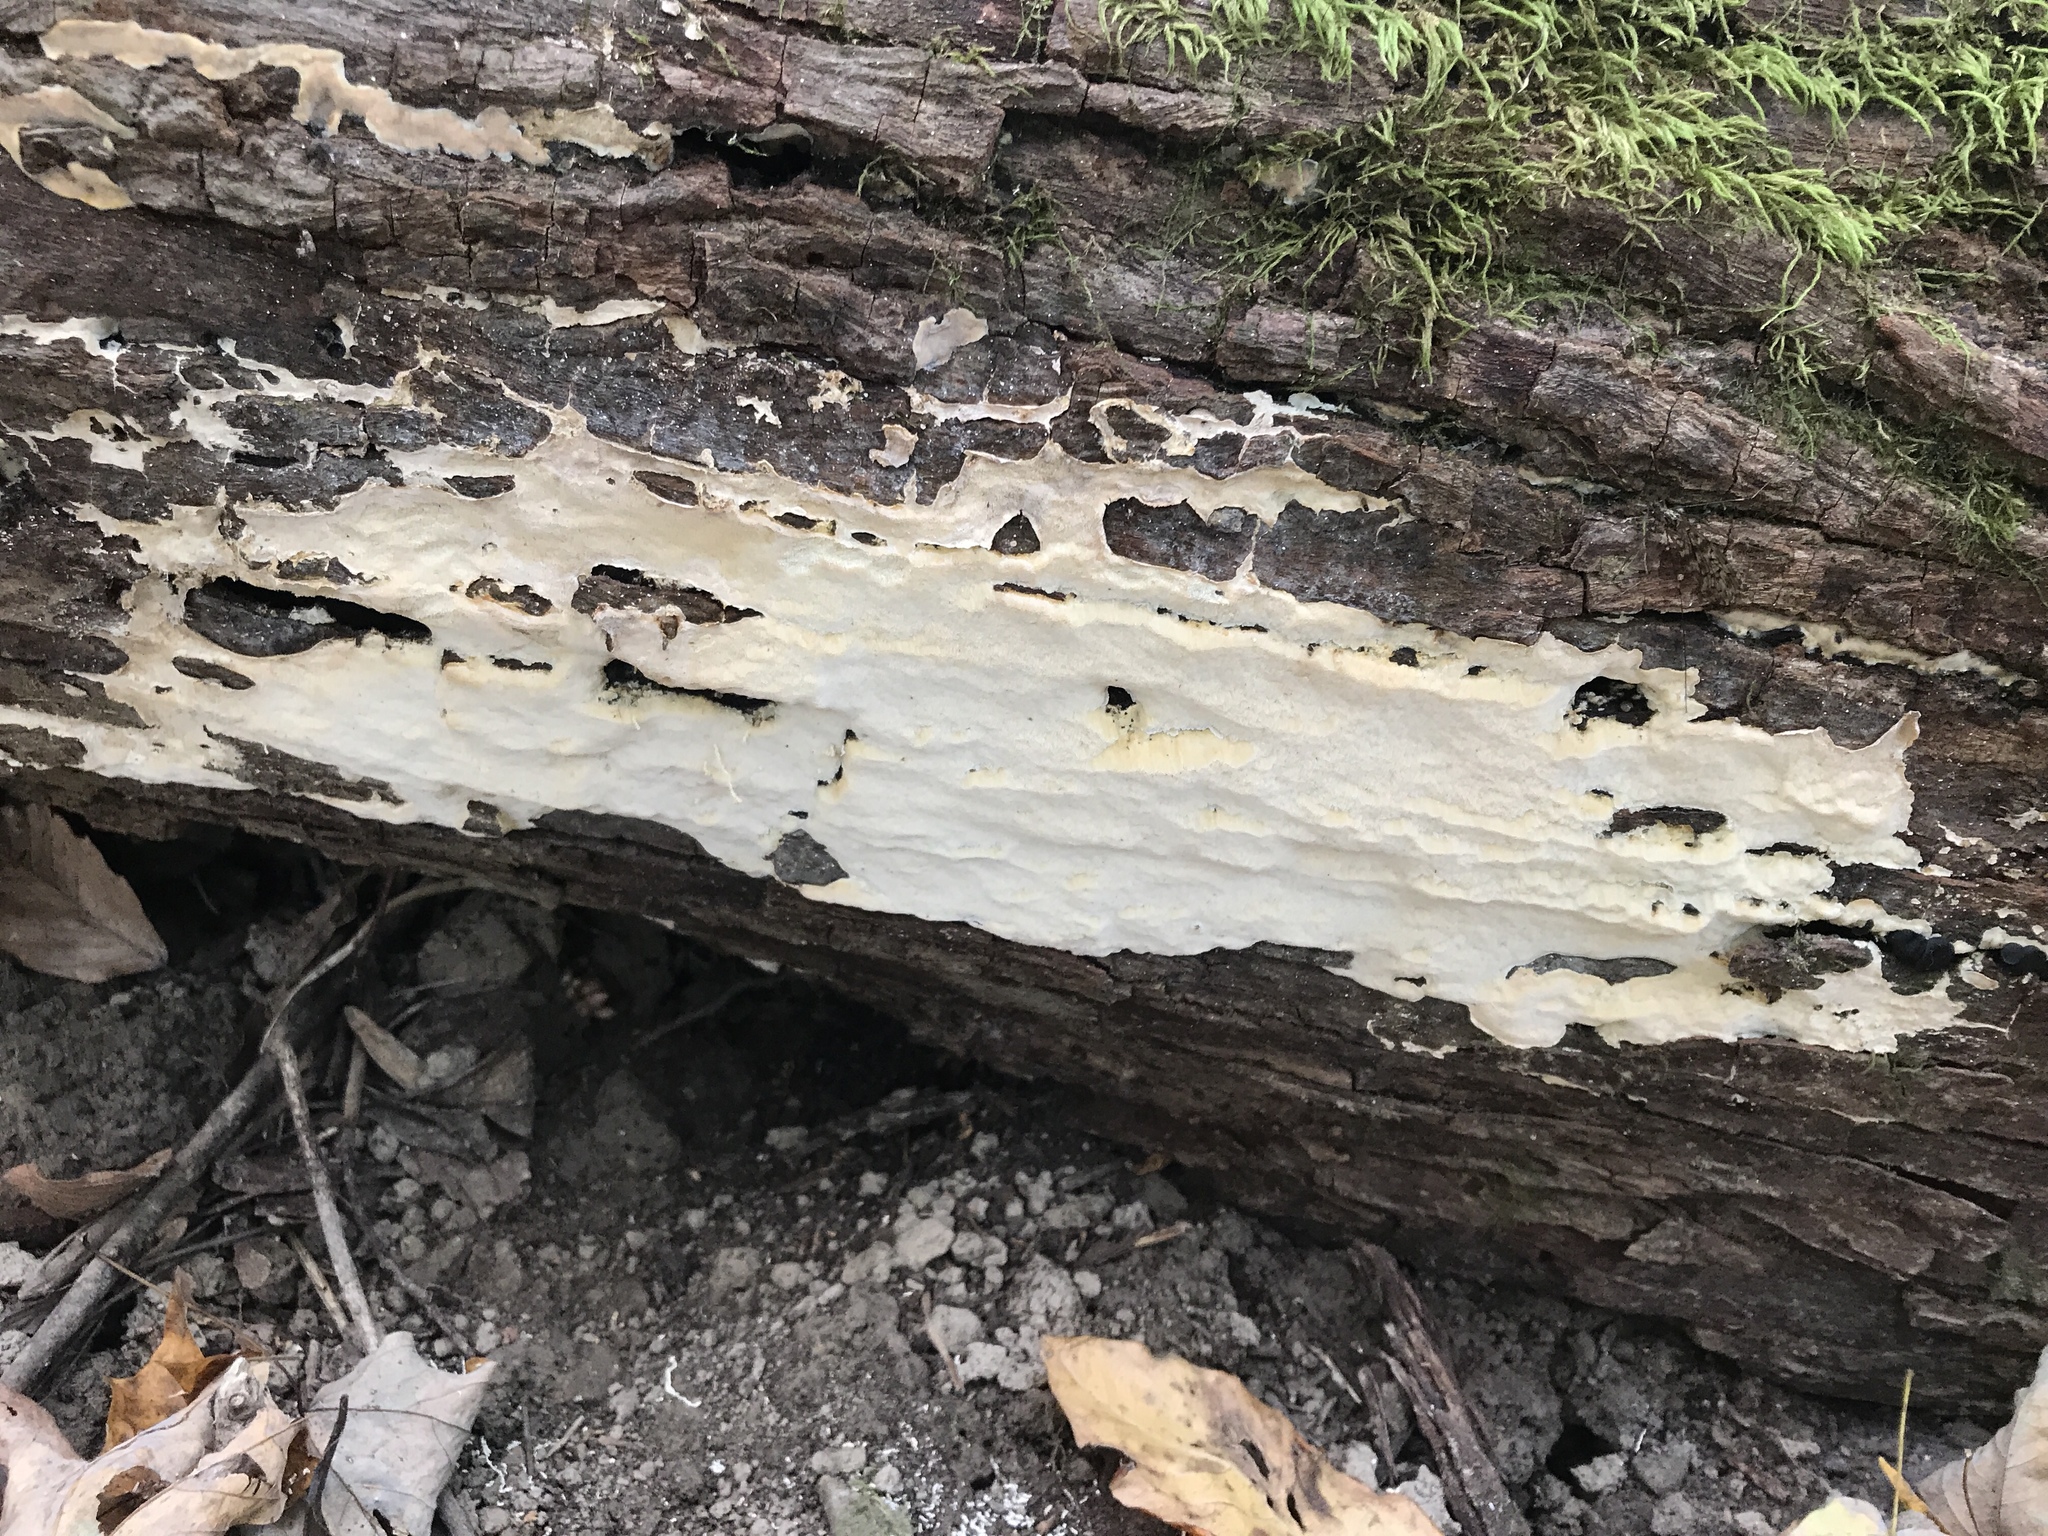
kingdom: Fungi
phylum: Basidiomycota
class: Agaricomycetes
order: Russulales
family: Hericiaceae
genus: Pseudowrightoporia
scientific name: Pseudowrightoporia cylindrospora
